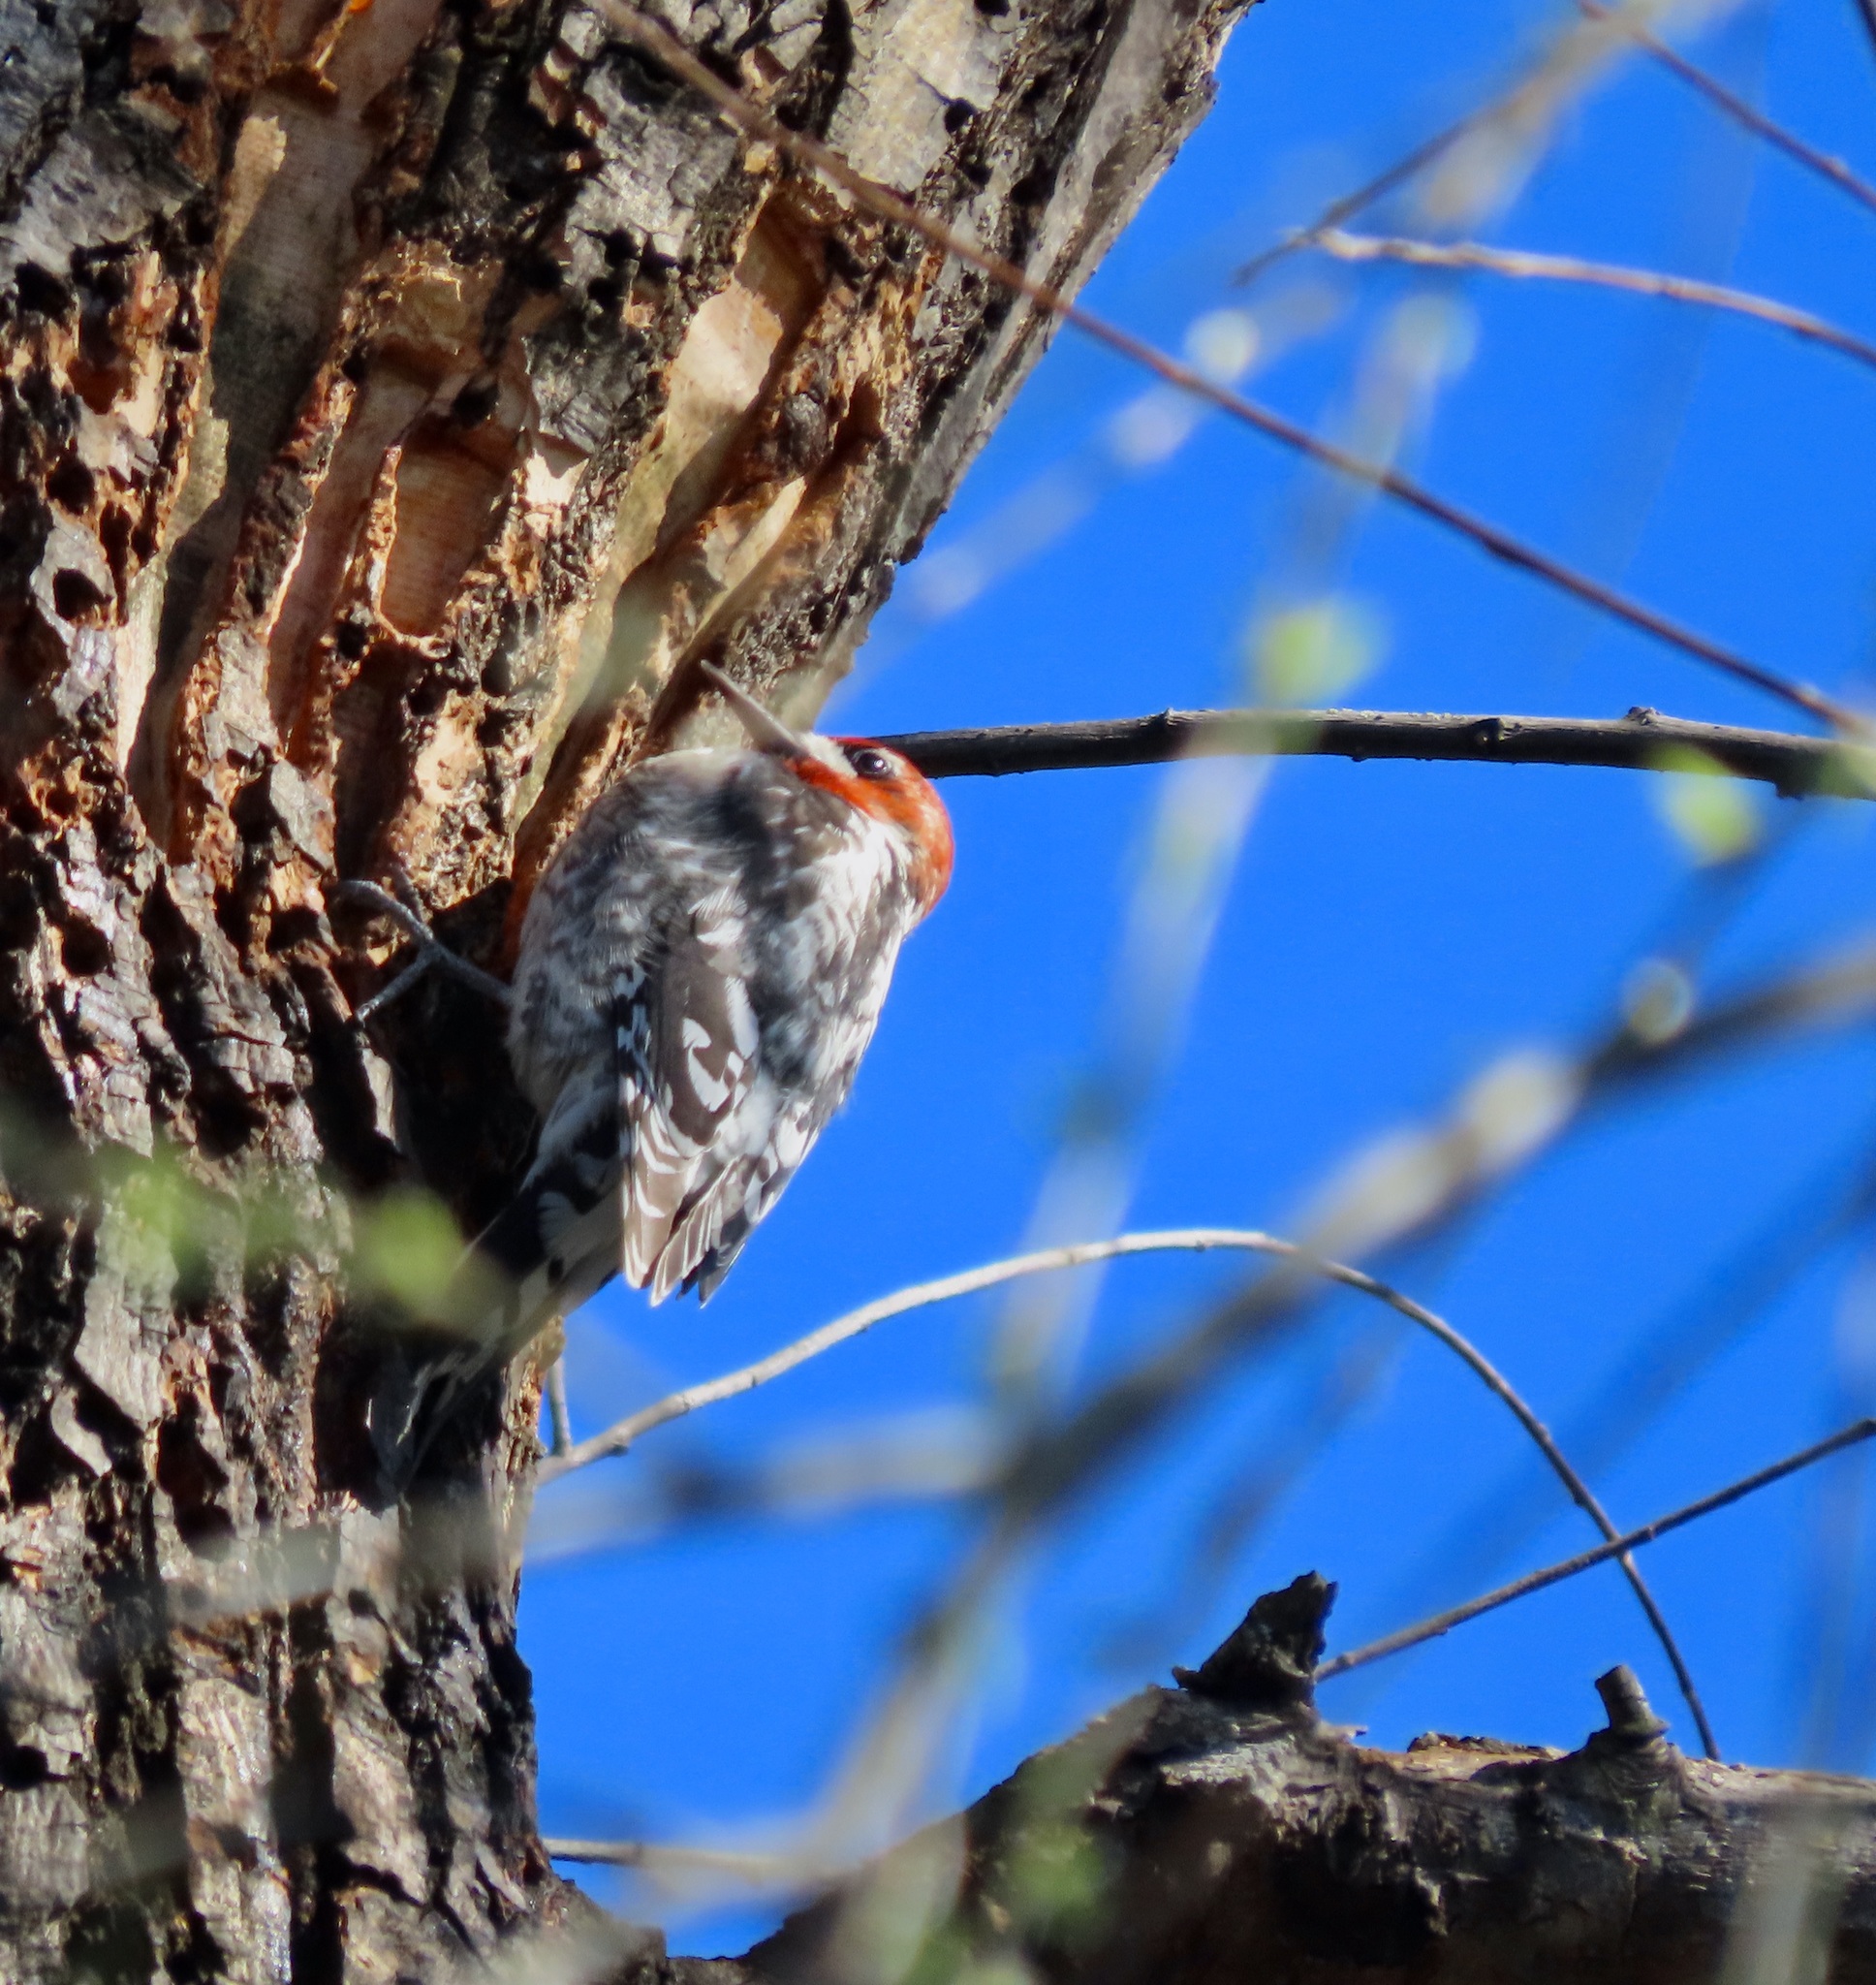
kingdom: Animalia
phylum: Chordata
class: Aves
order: Piciformes
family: Picidae
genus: Sphyrapicus
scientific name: Sphyrapicus ruber
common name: Red-breasted sapsucker
